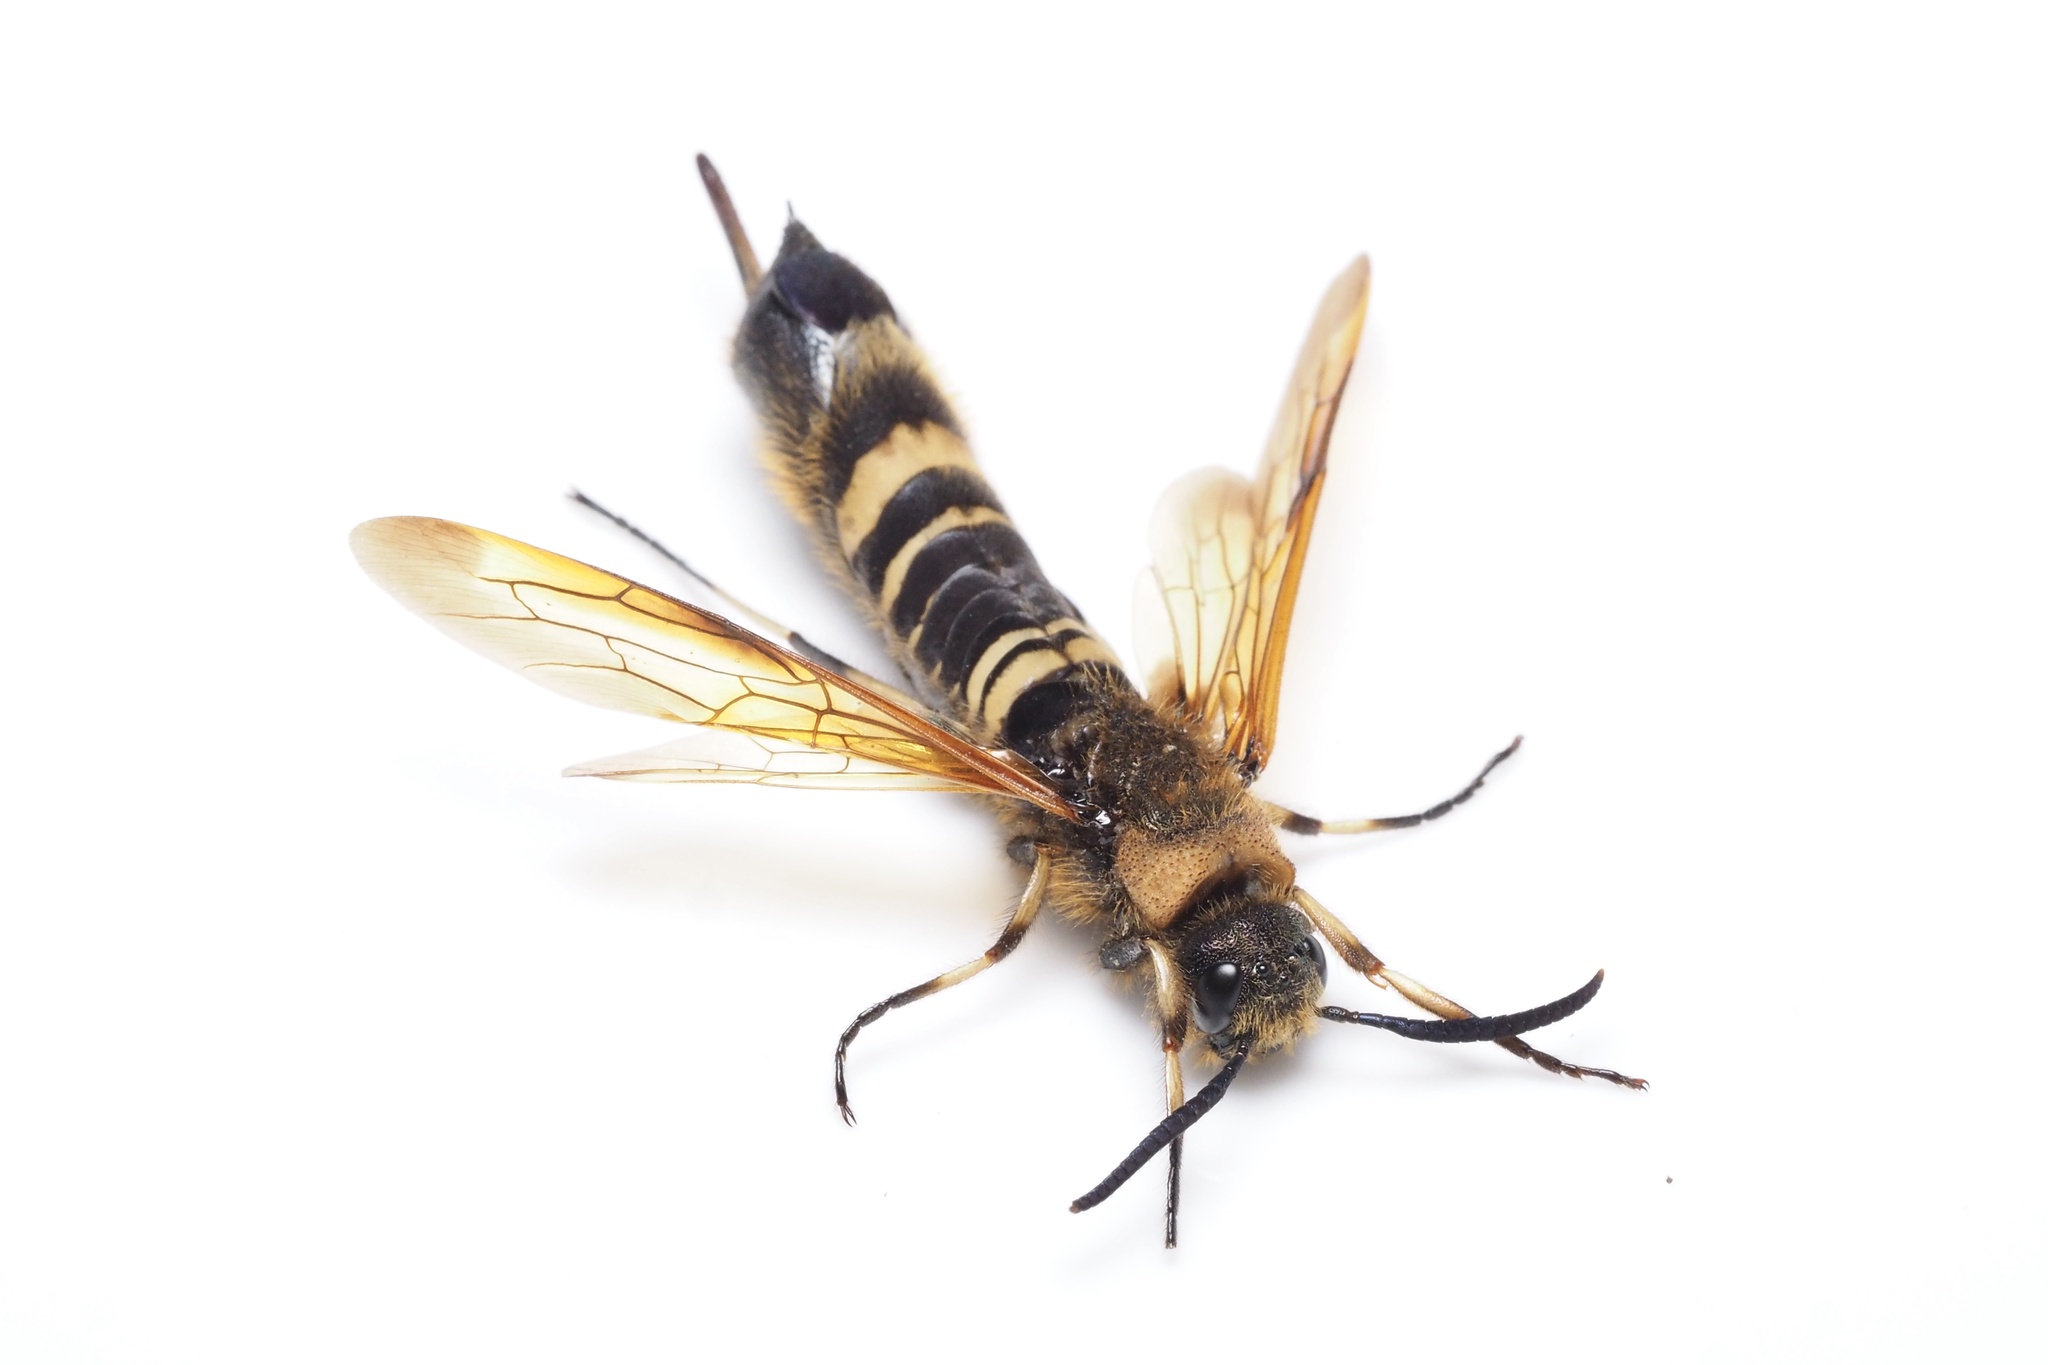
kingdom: Animalia
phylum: Arthropoda
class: Insecta
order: Hymenoptera
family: Siricidae
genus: Eriotremex
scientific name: Eriotremex formosanus
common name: Asian horntail
